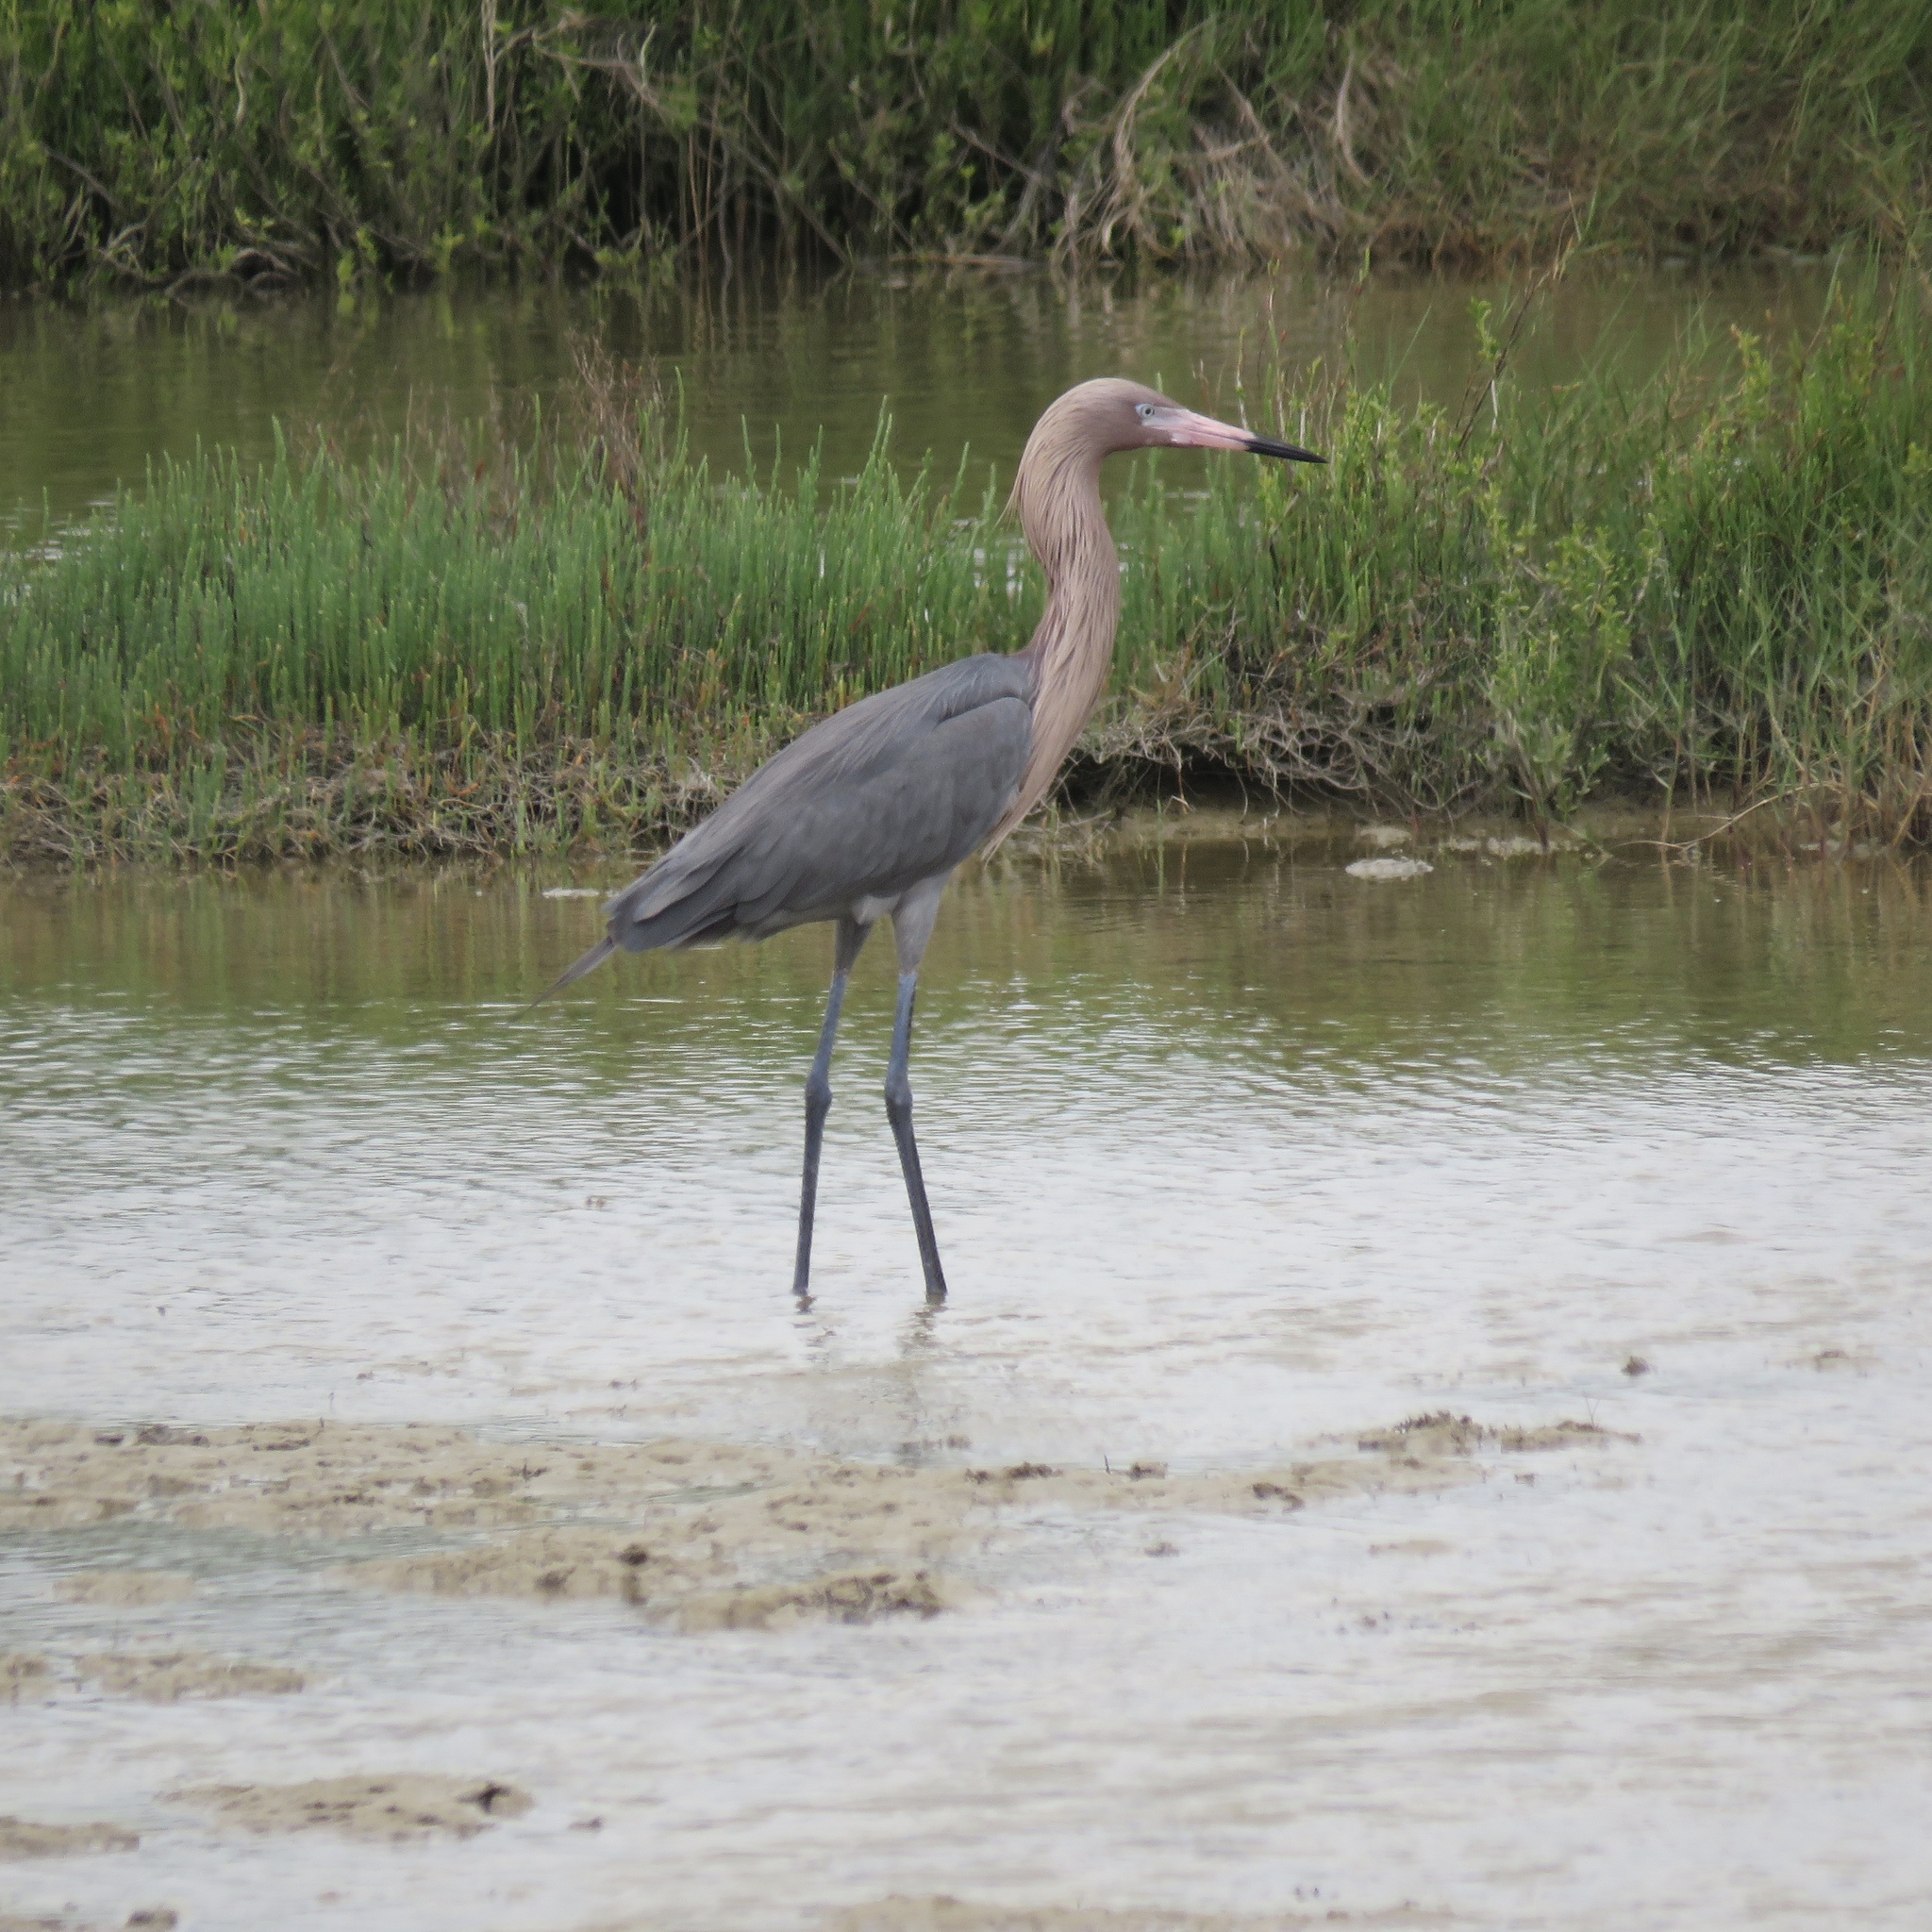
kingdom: Animalia
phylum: Chordata
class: Aves
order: Pelecaniformes
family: Ardeidae
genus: Egretta
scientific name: Egretta rufescens
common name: Reddish egret
